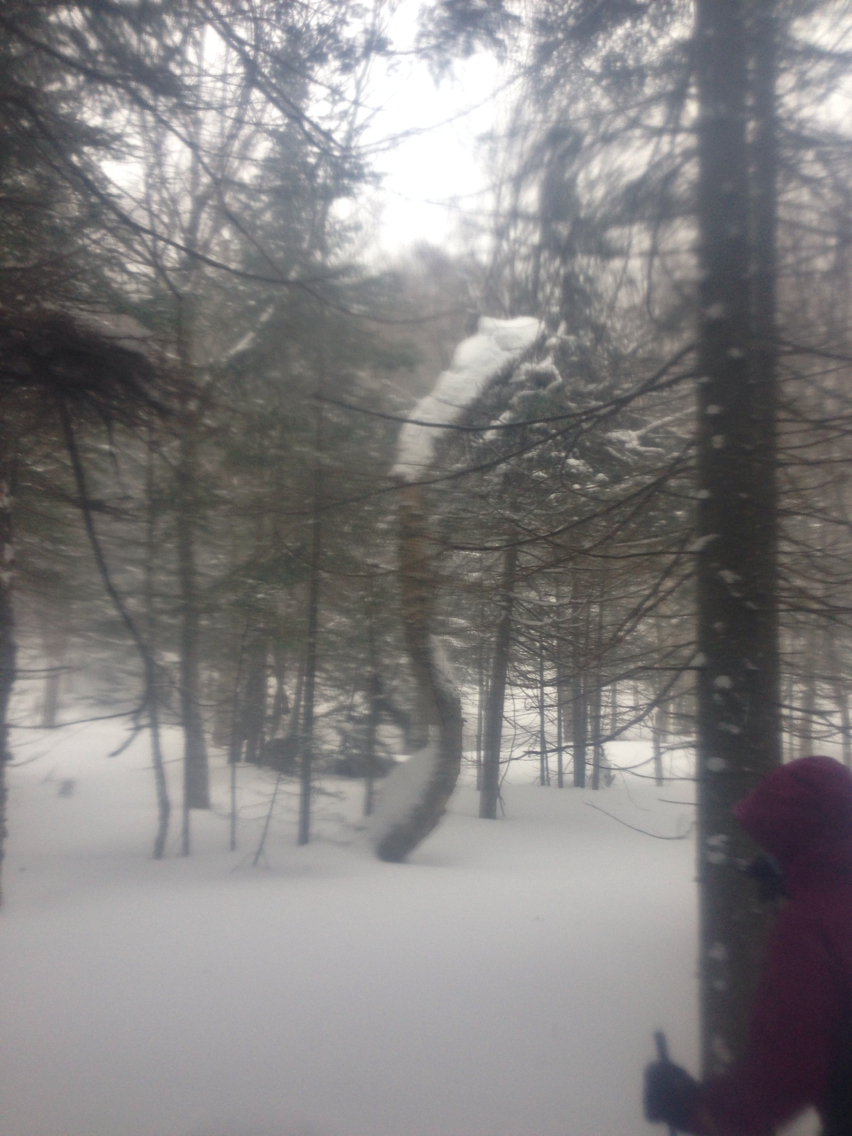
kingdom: Plantae
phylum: Tracheophyta
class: Pinopsida
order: Pinales
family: Pinaceae
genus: Abies
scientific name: Abies balsamea
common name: Balsam fir
